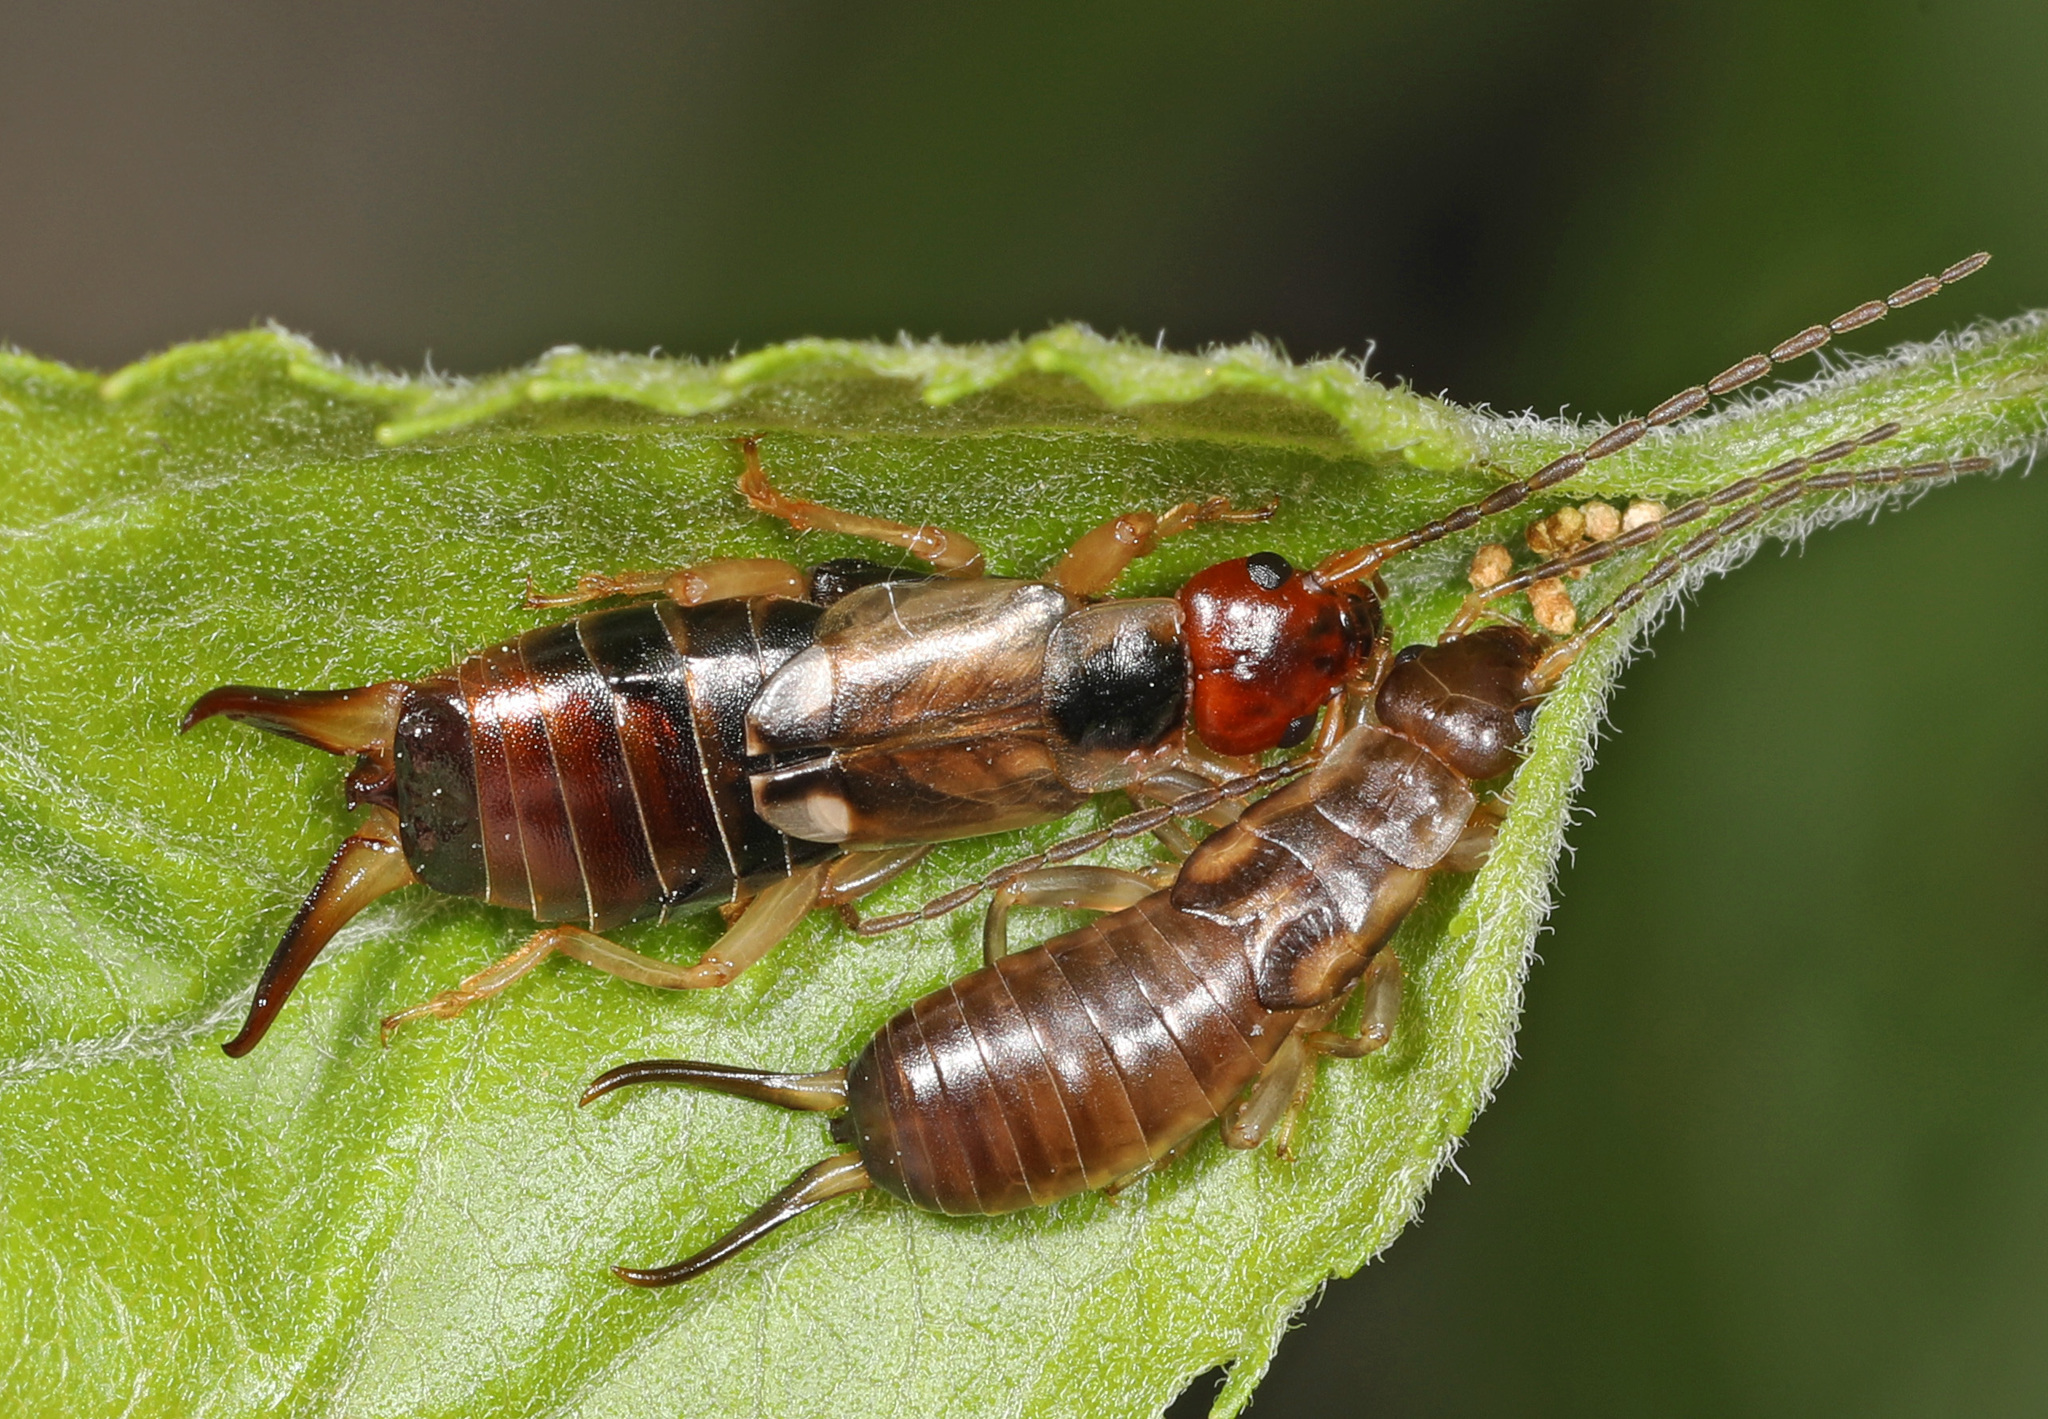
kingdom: Animalia
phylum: Arthropoda
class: Insecta
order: Dermaptera
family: Forficulidae
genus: Forficula
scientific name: Forficula
